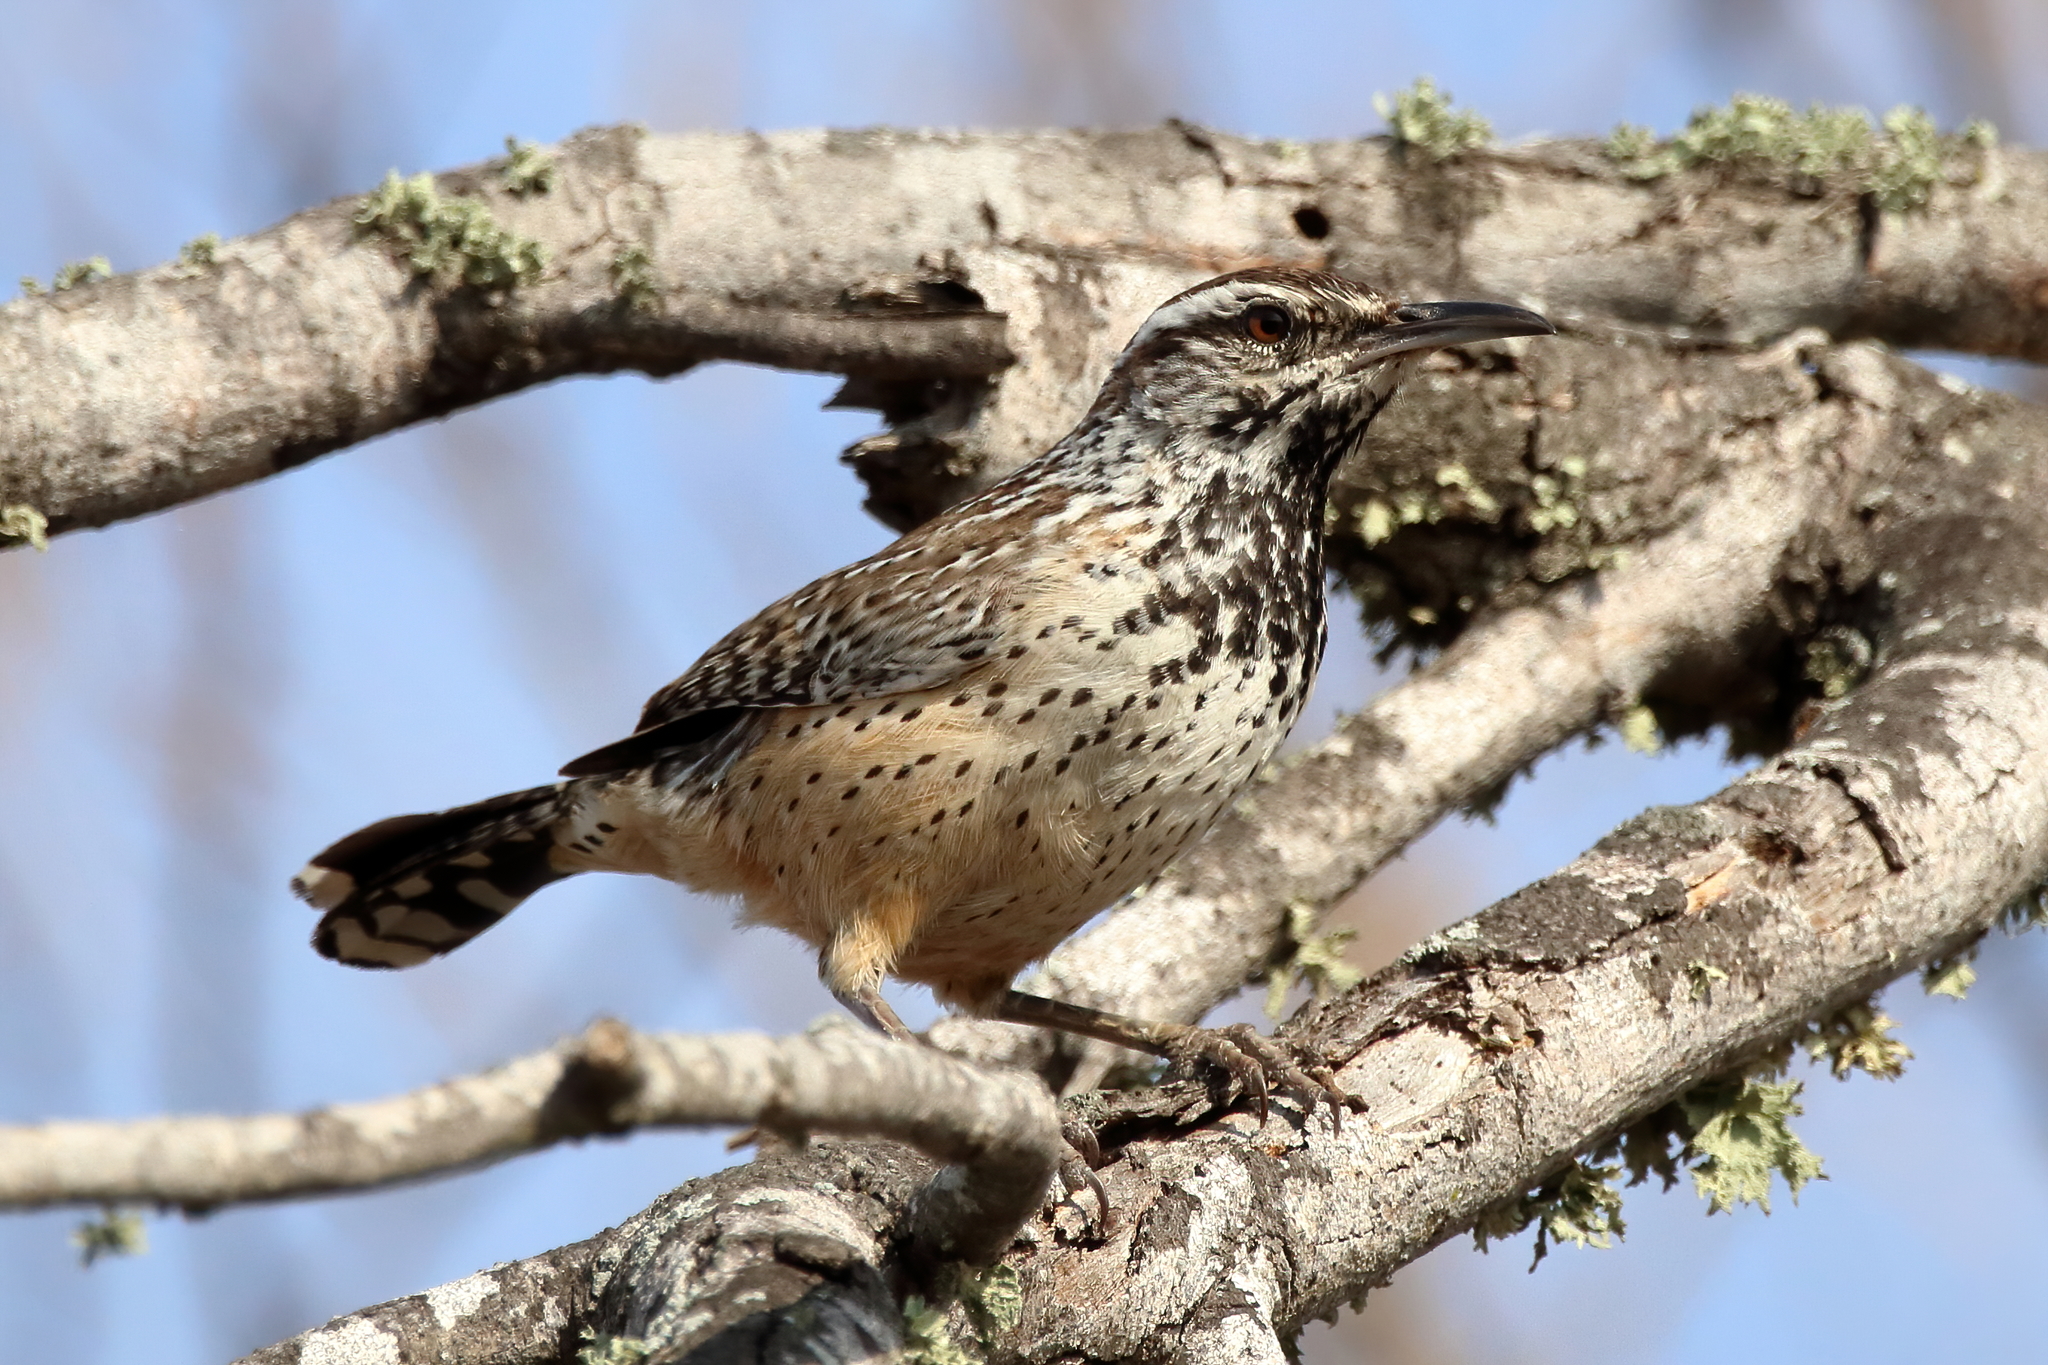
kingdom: Animalia
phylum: Chordata
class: Aves
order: Passeriformes
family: Troglodytidae
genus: Campylorhynchus
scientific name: Campylorhynchus brunneicapillus
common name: Cactus wren
